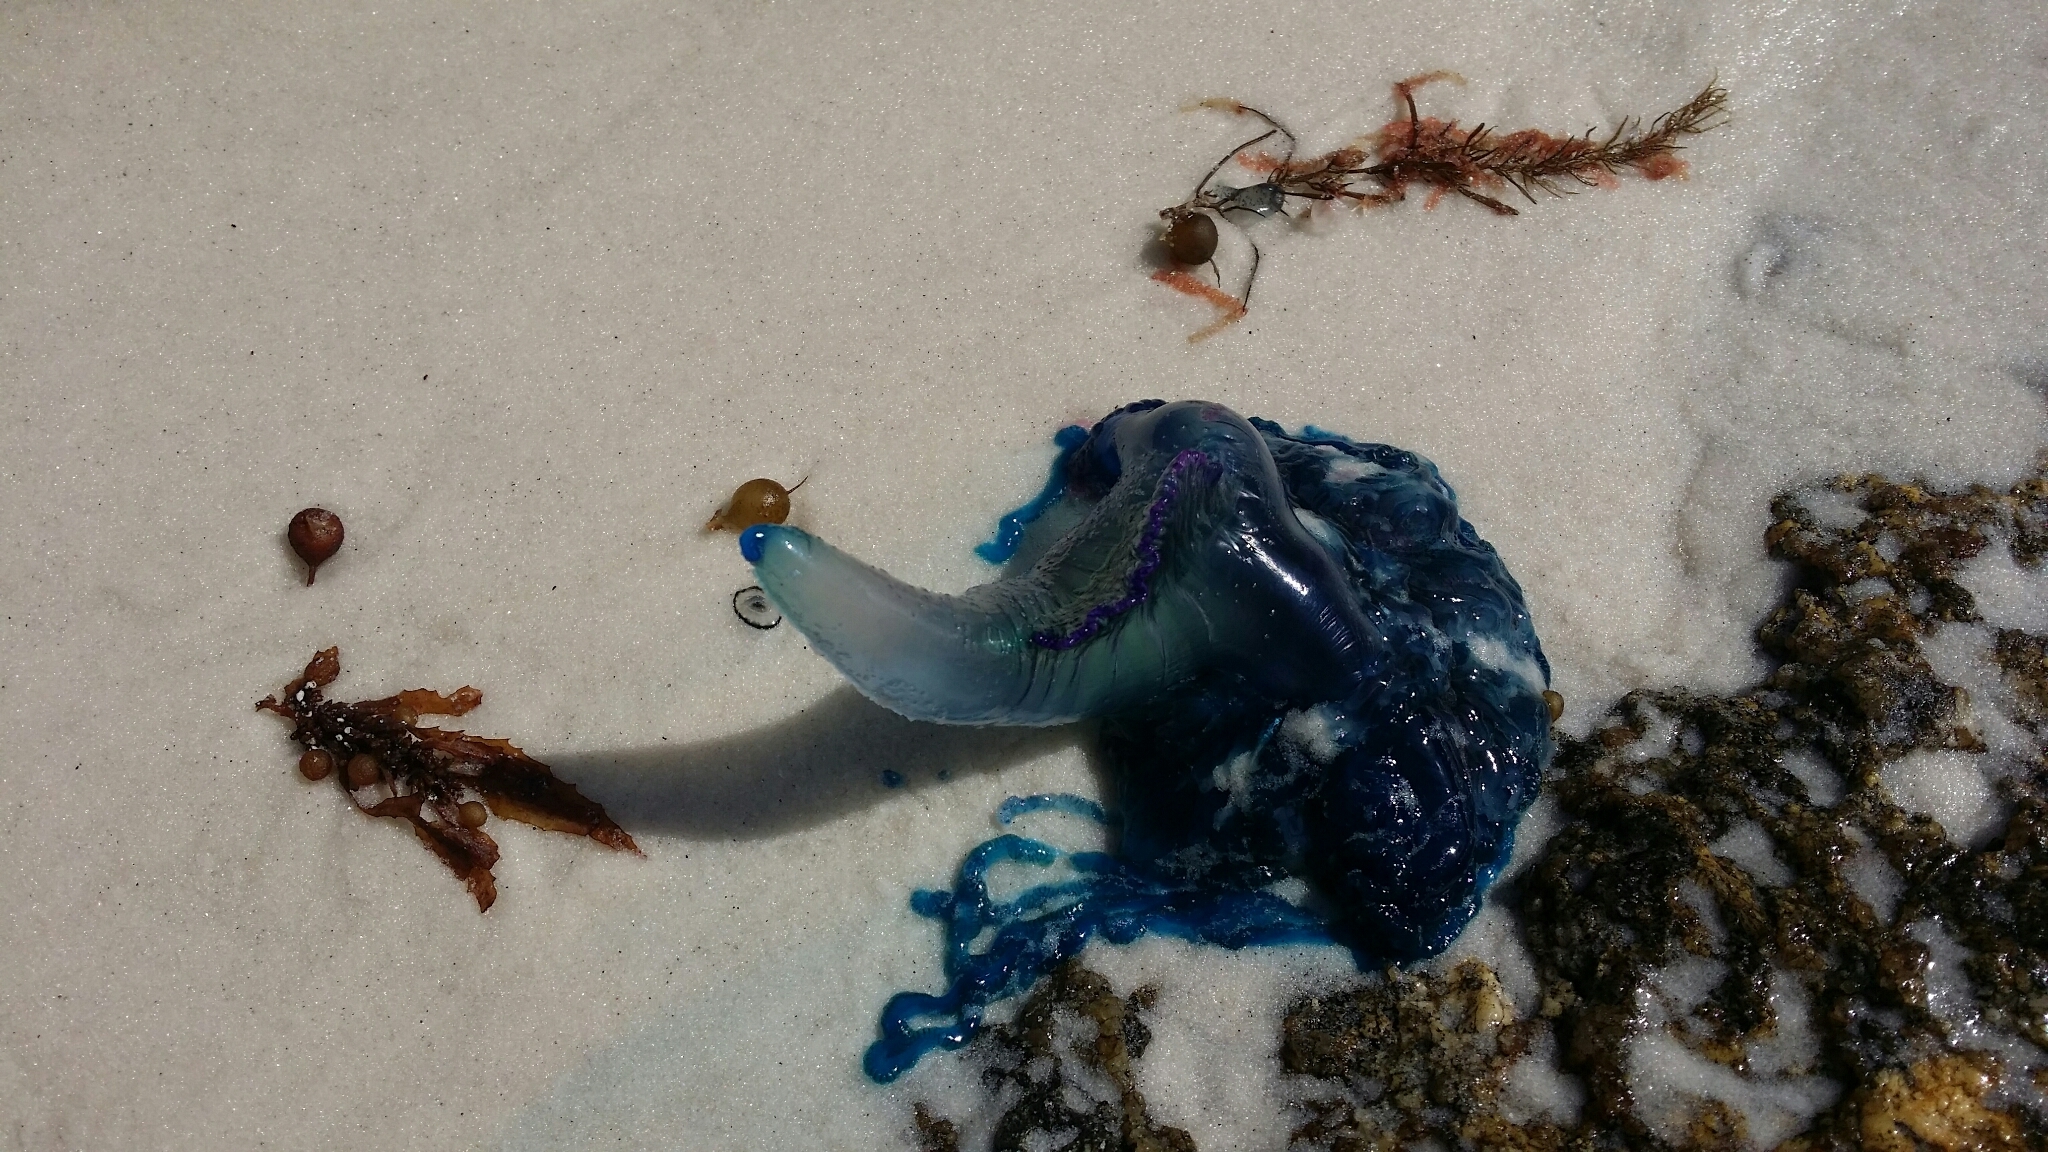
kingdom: Animalia
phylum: Cnidaria
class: Hydrozoa
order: Siphonophorae
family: Physaliidae
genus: Physalia
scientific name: Physalia physalis
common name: Portuguese man-of-war
